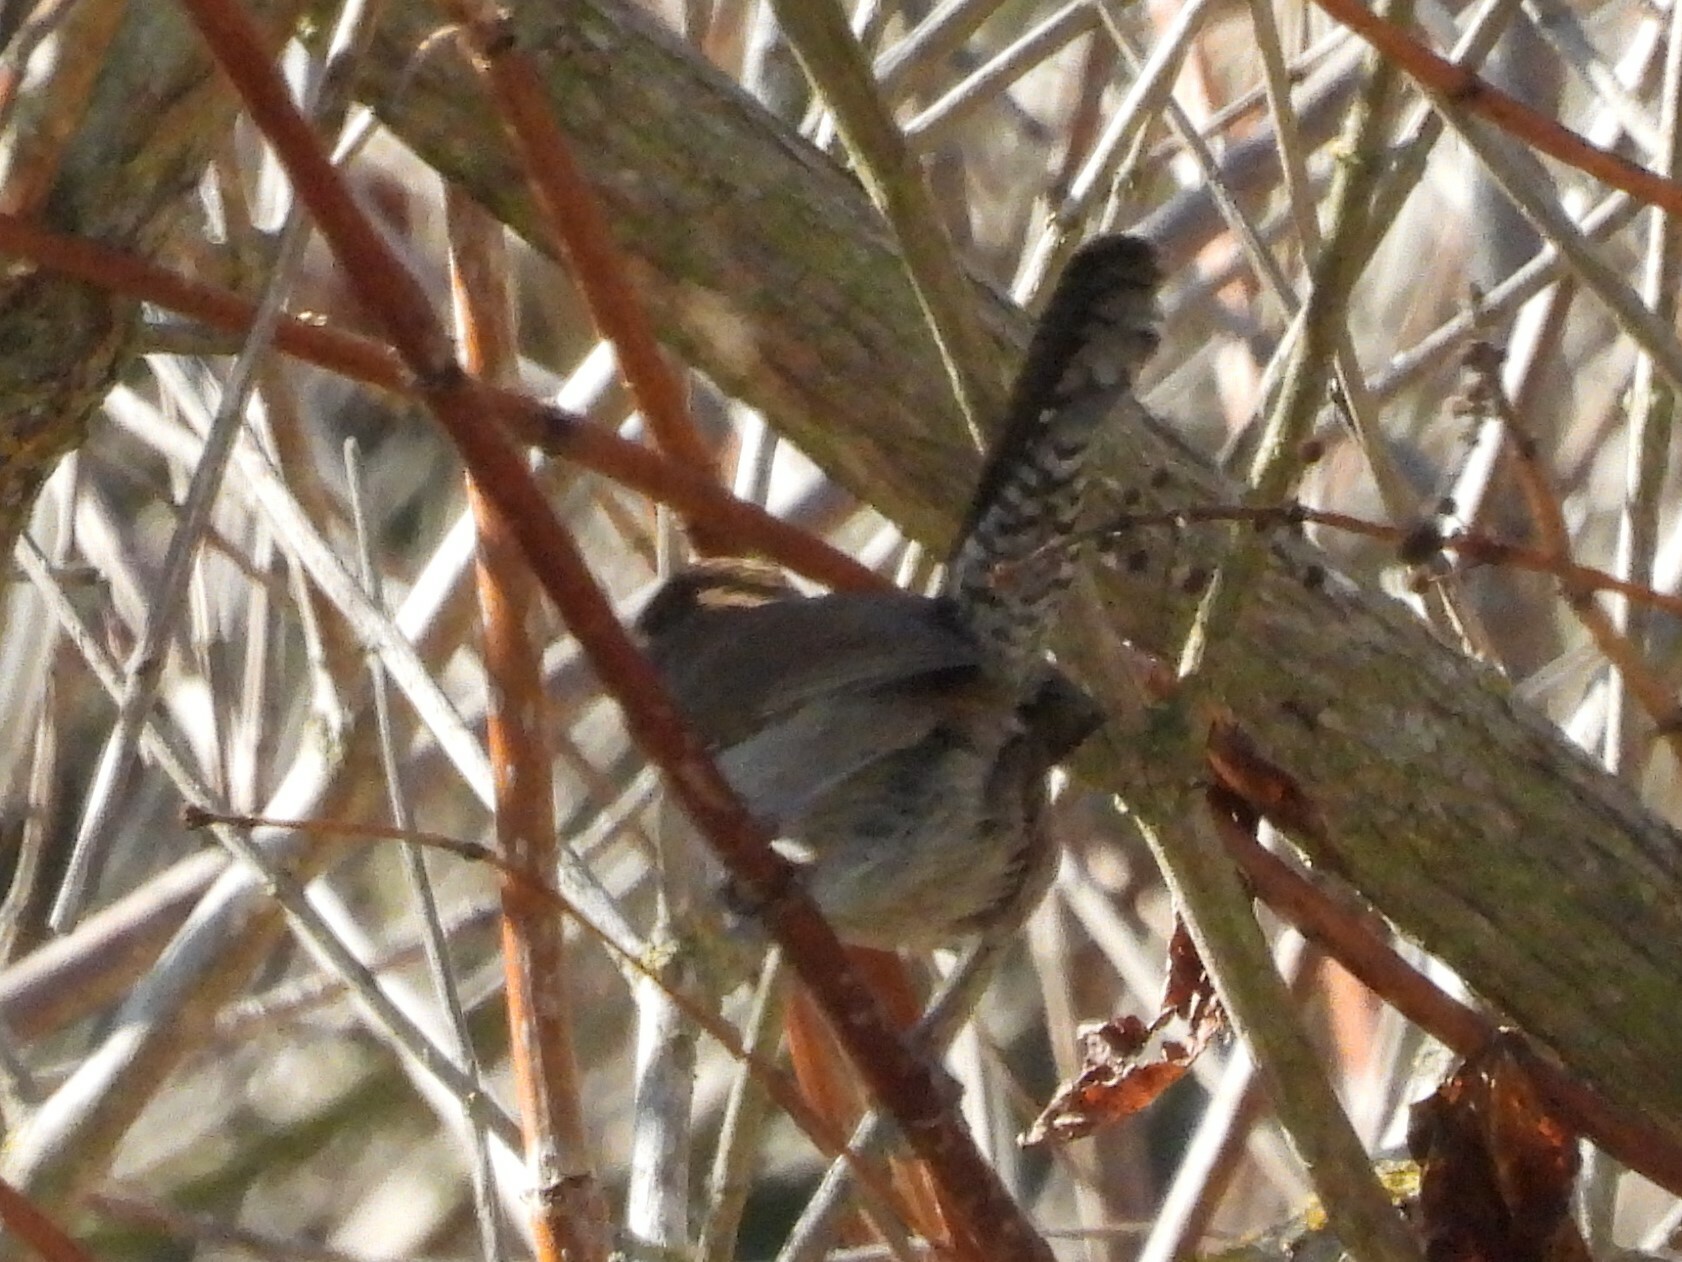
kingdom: Animalia
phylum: Chordata
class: Aves
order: Passeriformes
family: Troglodytidae
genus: Thryomanes
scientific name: Thryomanes bewickii
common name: Bewick's wren
